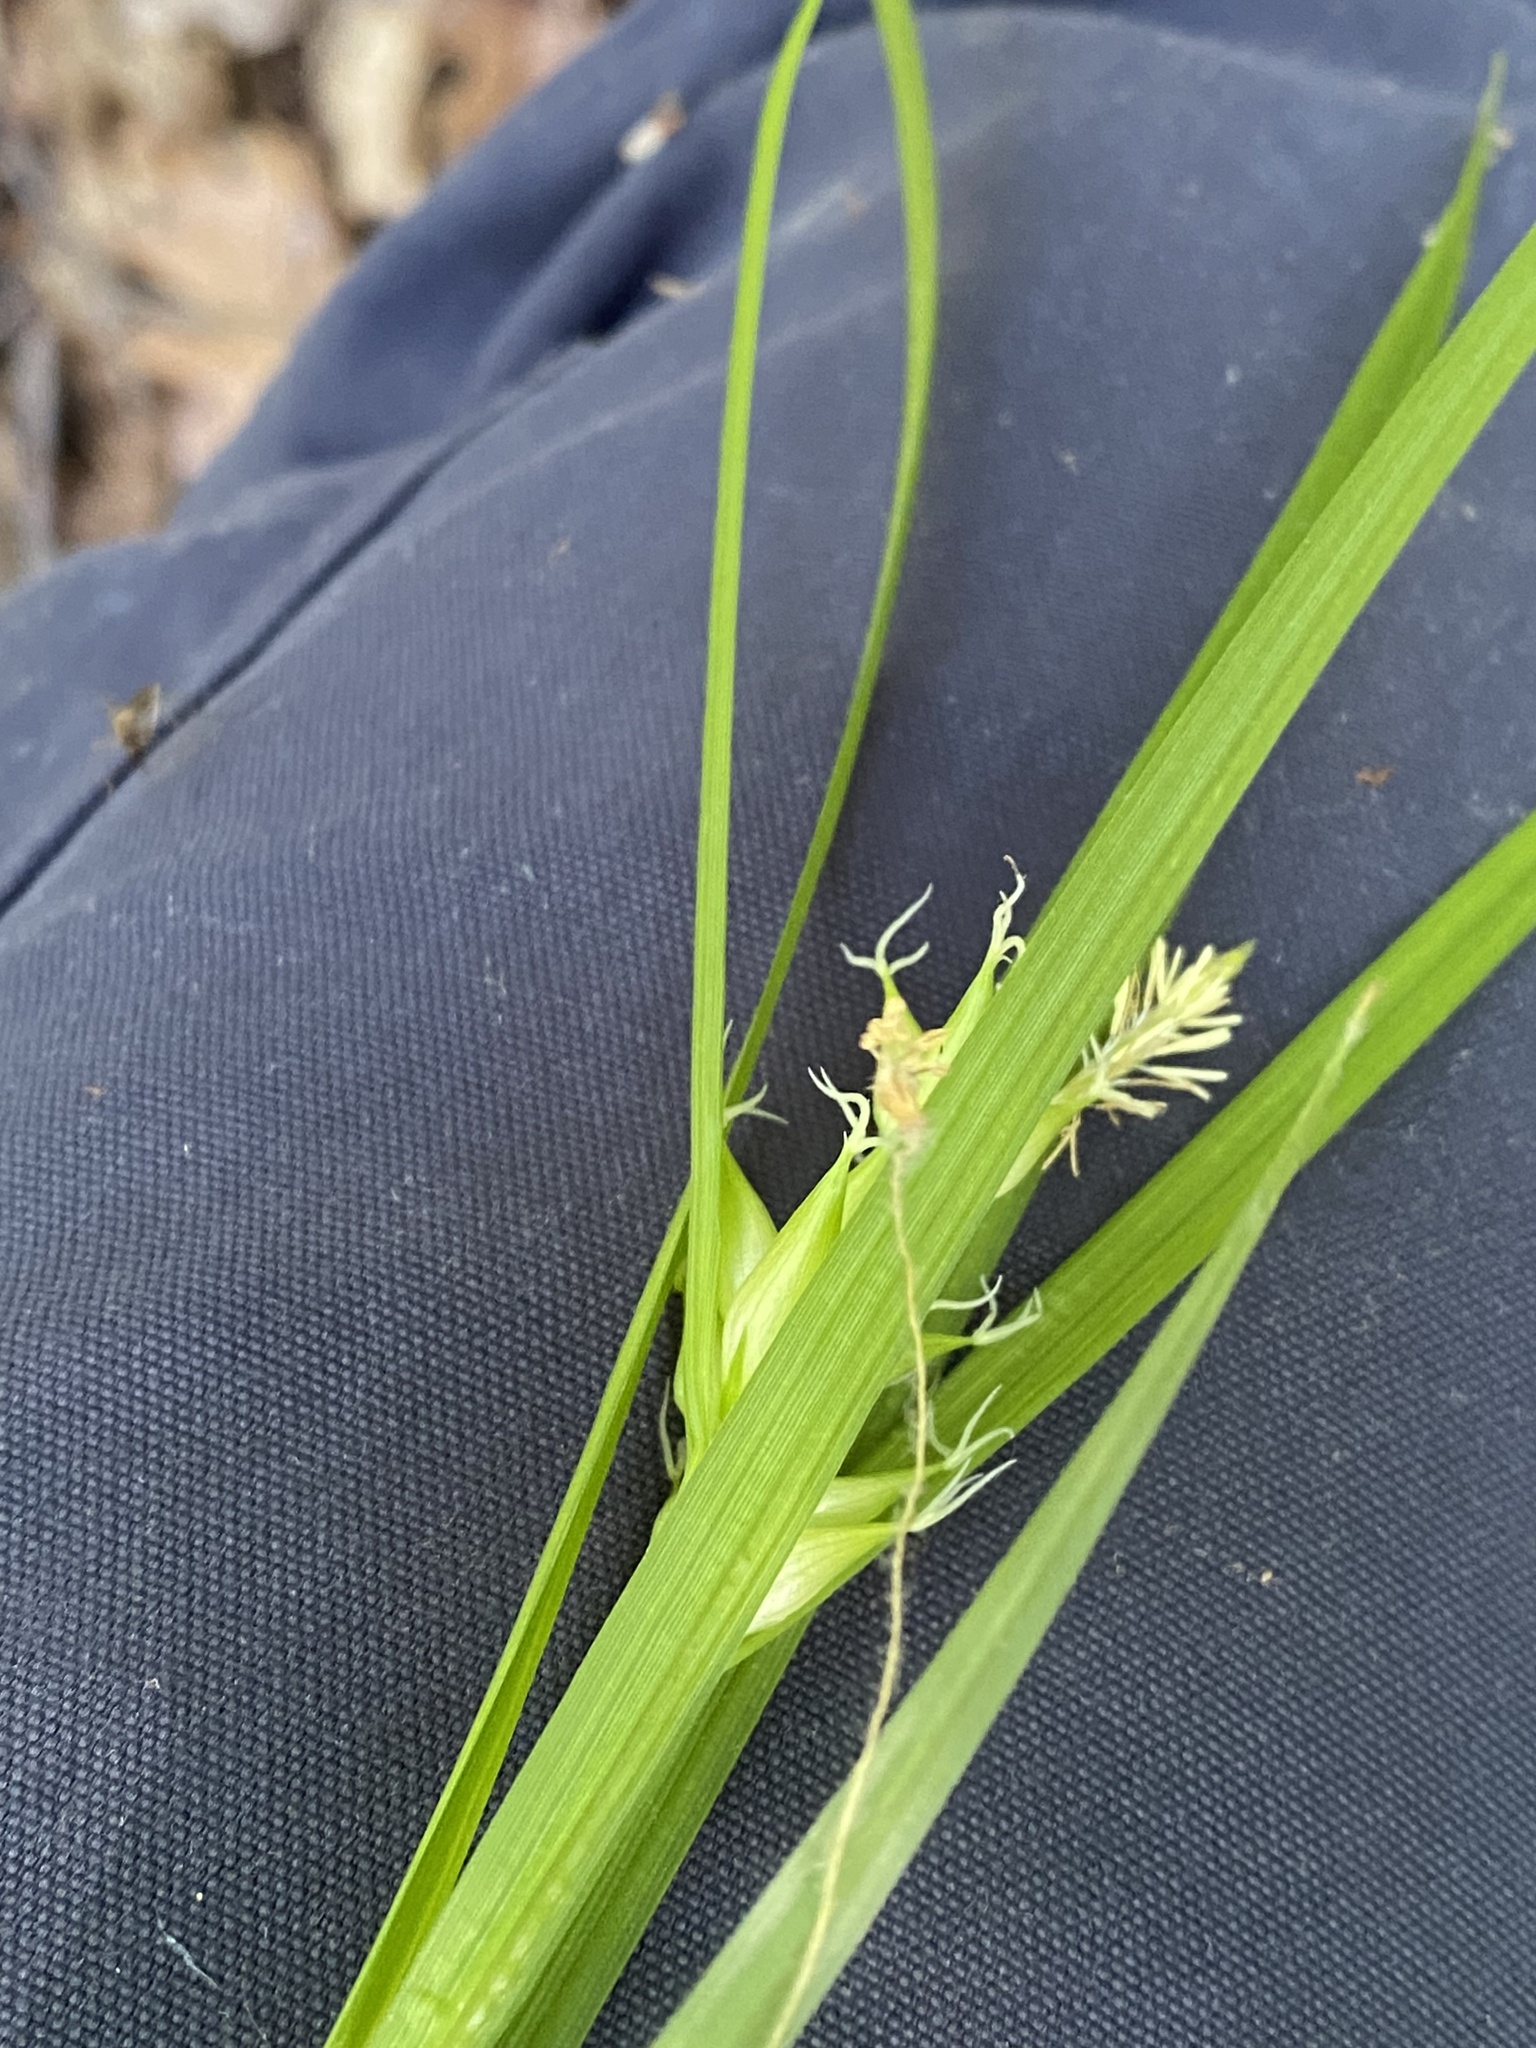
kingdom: Plantae
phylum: Tracheophyta
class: Liliopsida
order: Poales
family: Cyperaceae
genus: Carex
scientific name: Carex intumescens
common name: Greater bladder sedge
